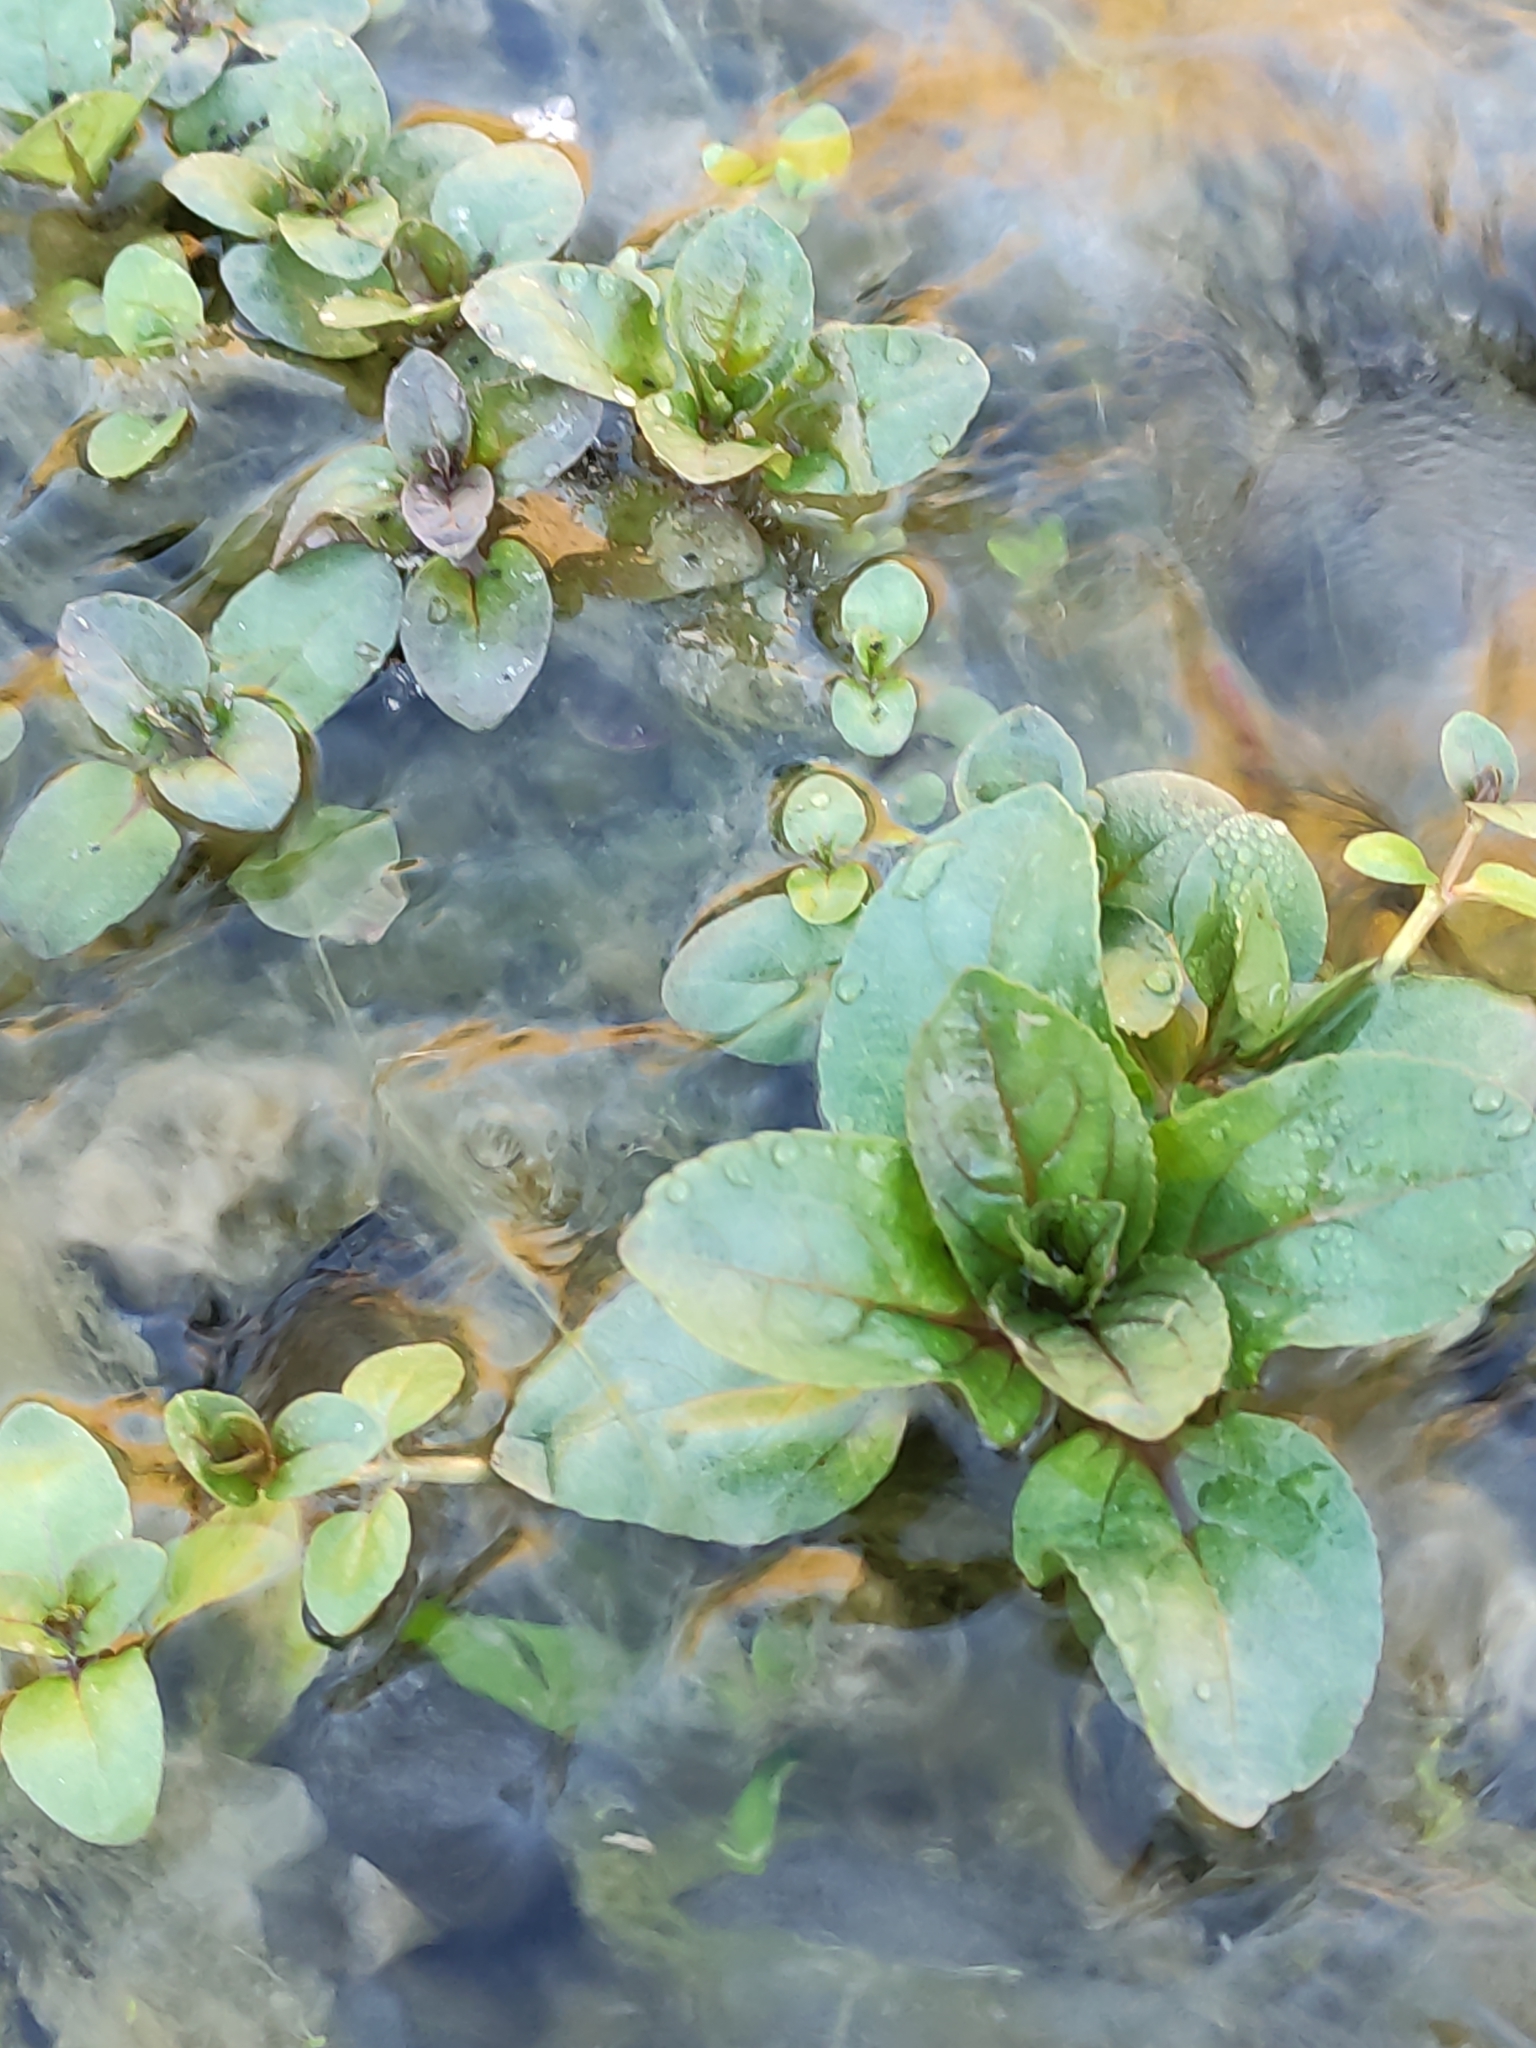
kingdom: Plantae
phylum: Tracheophyta
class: Magnoliopsida
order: Lamiales
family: Plantaginaceae
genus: Veronica
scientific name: Veronica anagallis-aquatica
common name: Water speedwell
